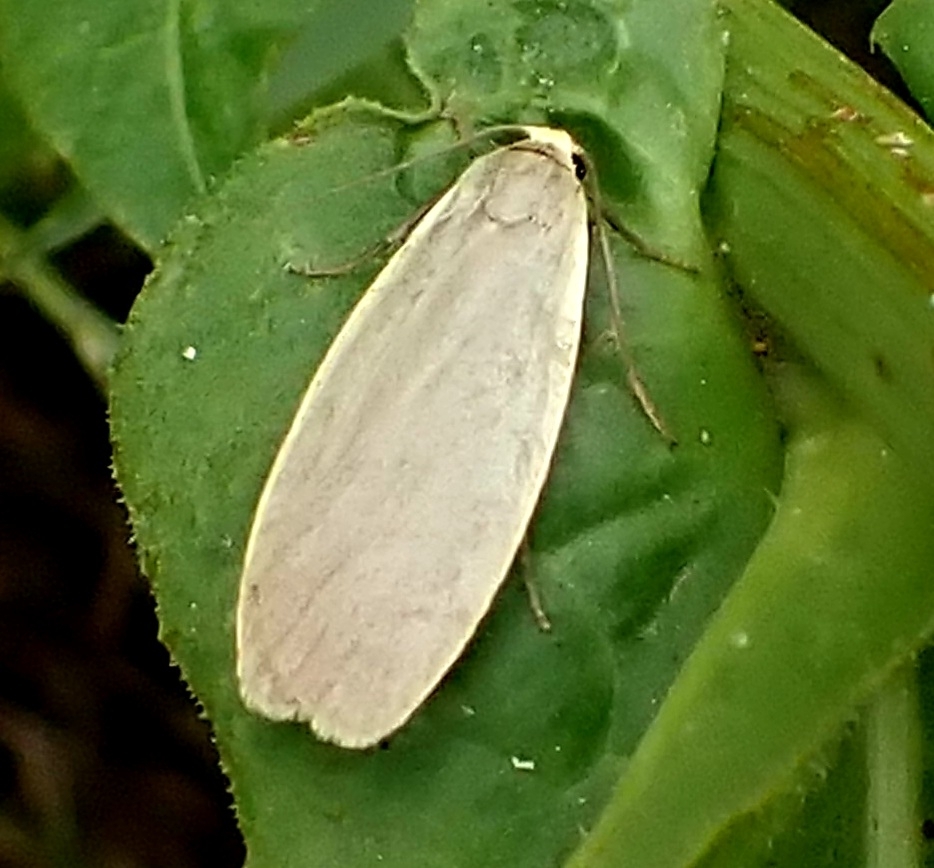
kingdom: Animalia
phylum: Arthropoda
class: Insecta
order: Lepidoptera
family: Erebidae
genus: Collita
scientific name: Collita griseola
